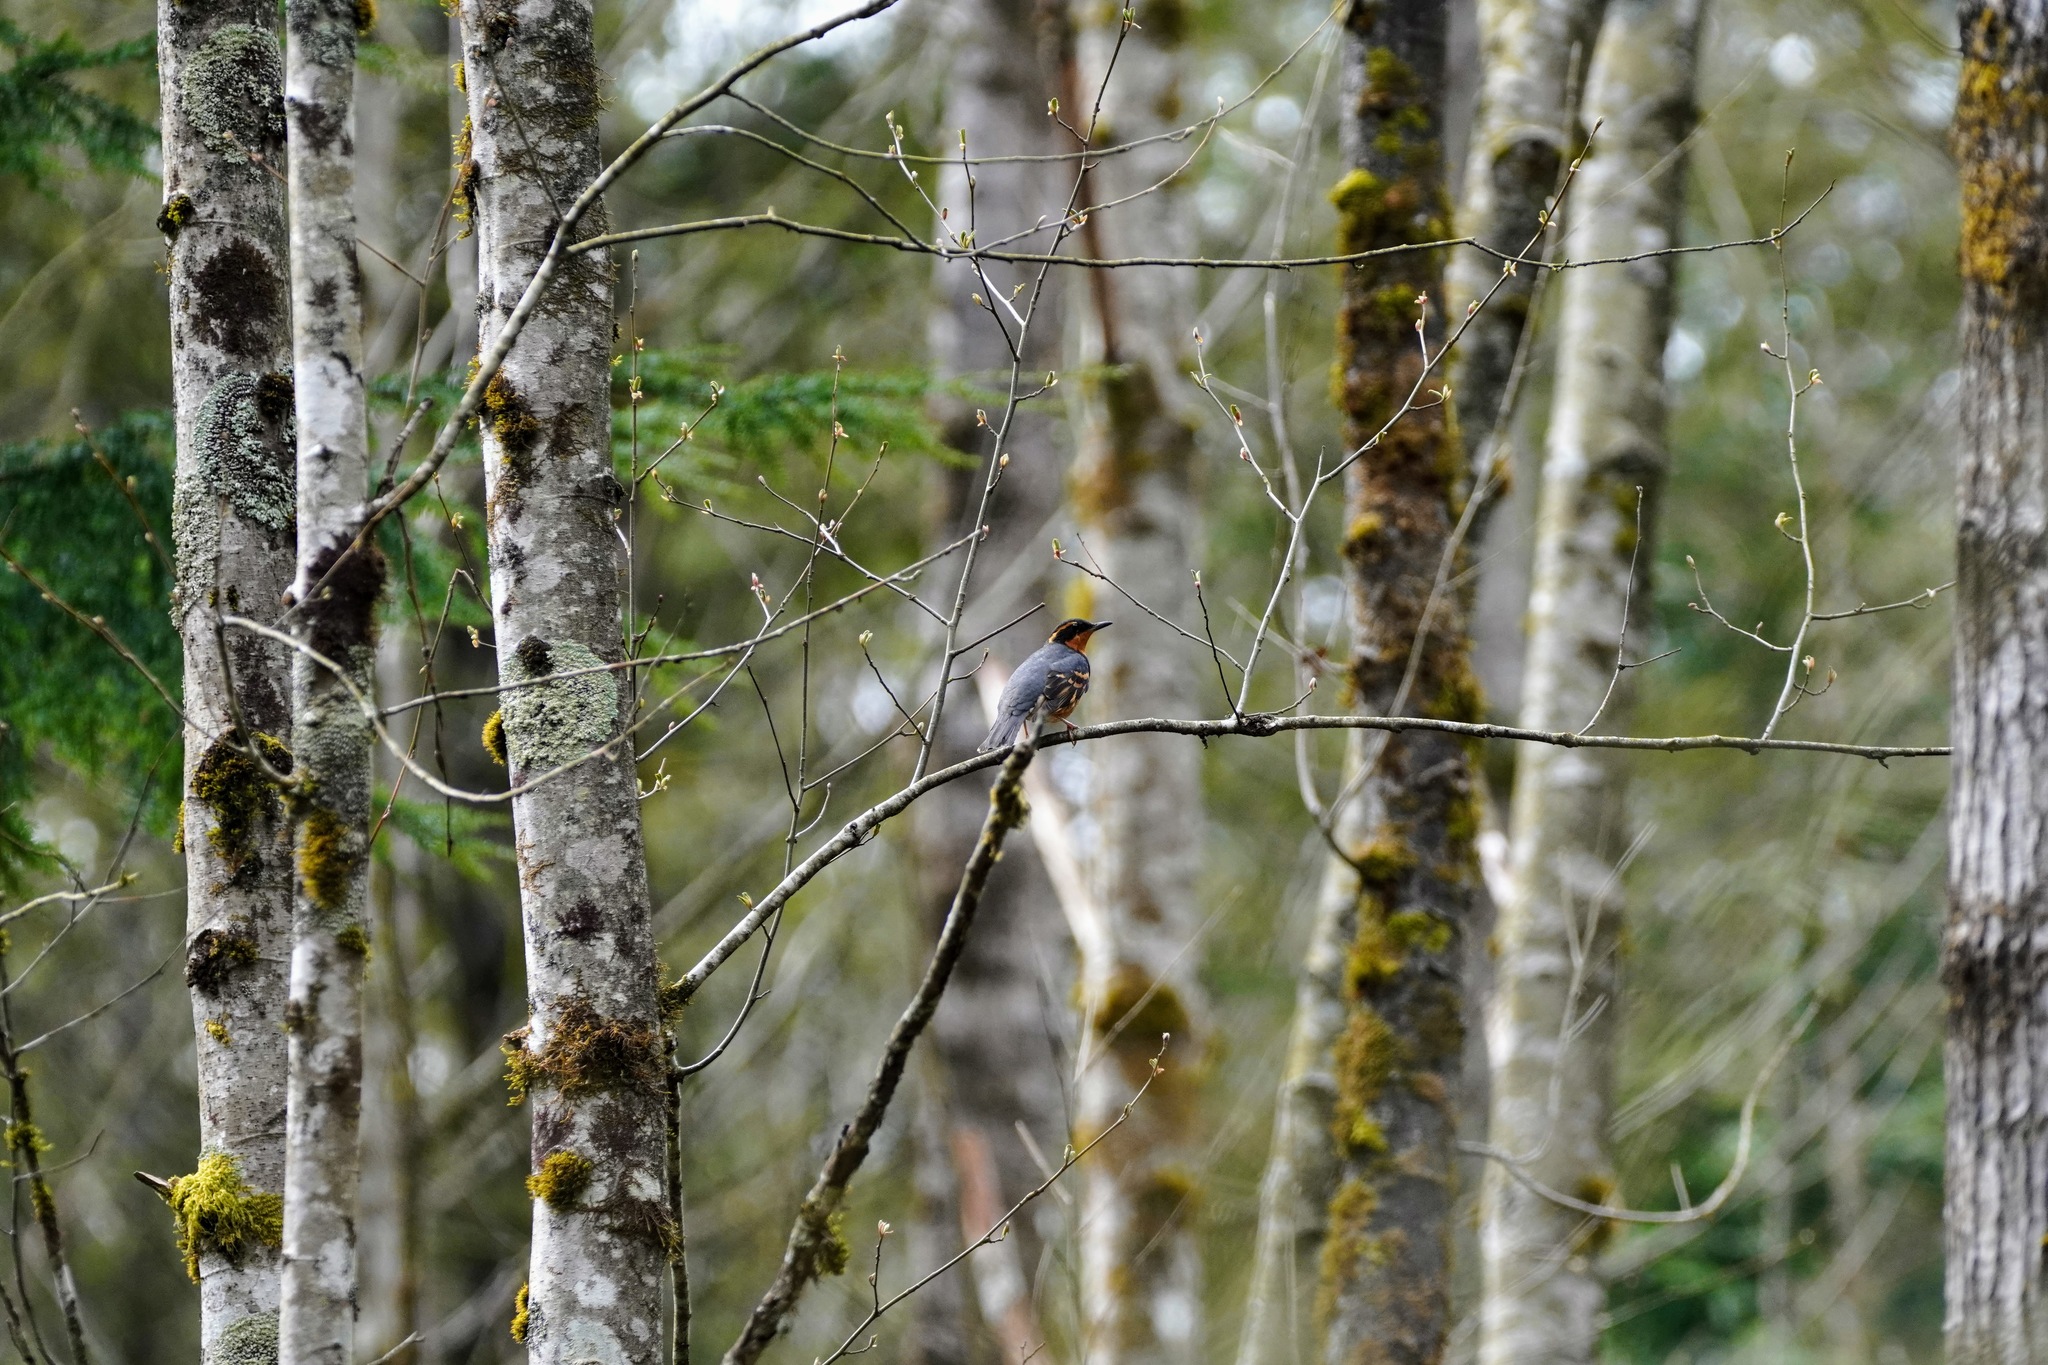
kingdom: Animalia
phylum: Chordata
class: Aves
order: Passeriformes
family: Turdidae
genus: Ixoreus
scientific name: Ixoreus naevius
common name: Varied thrush
